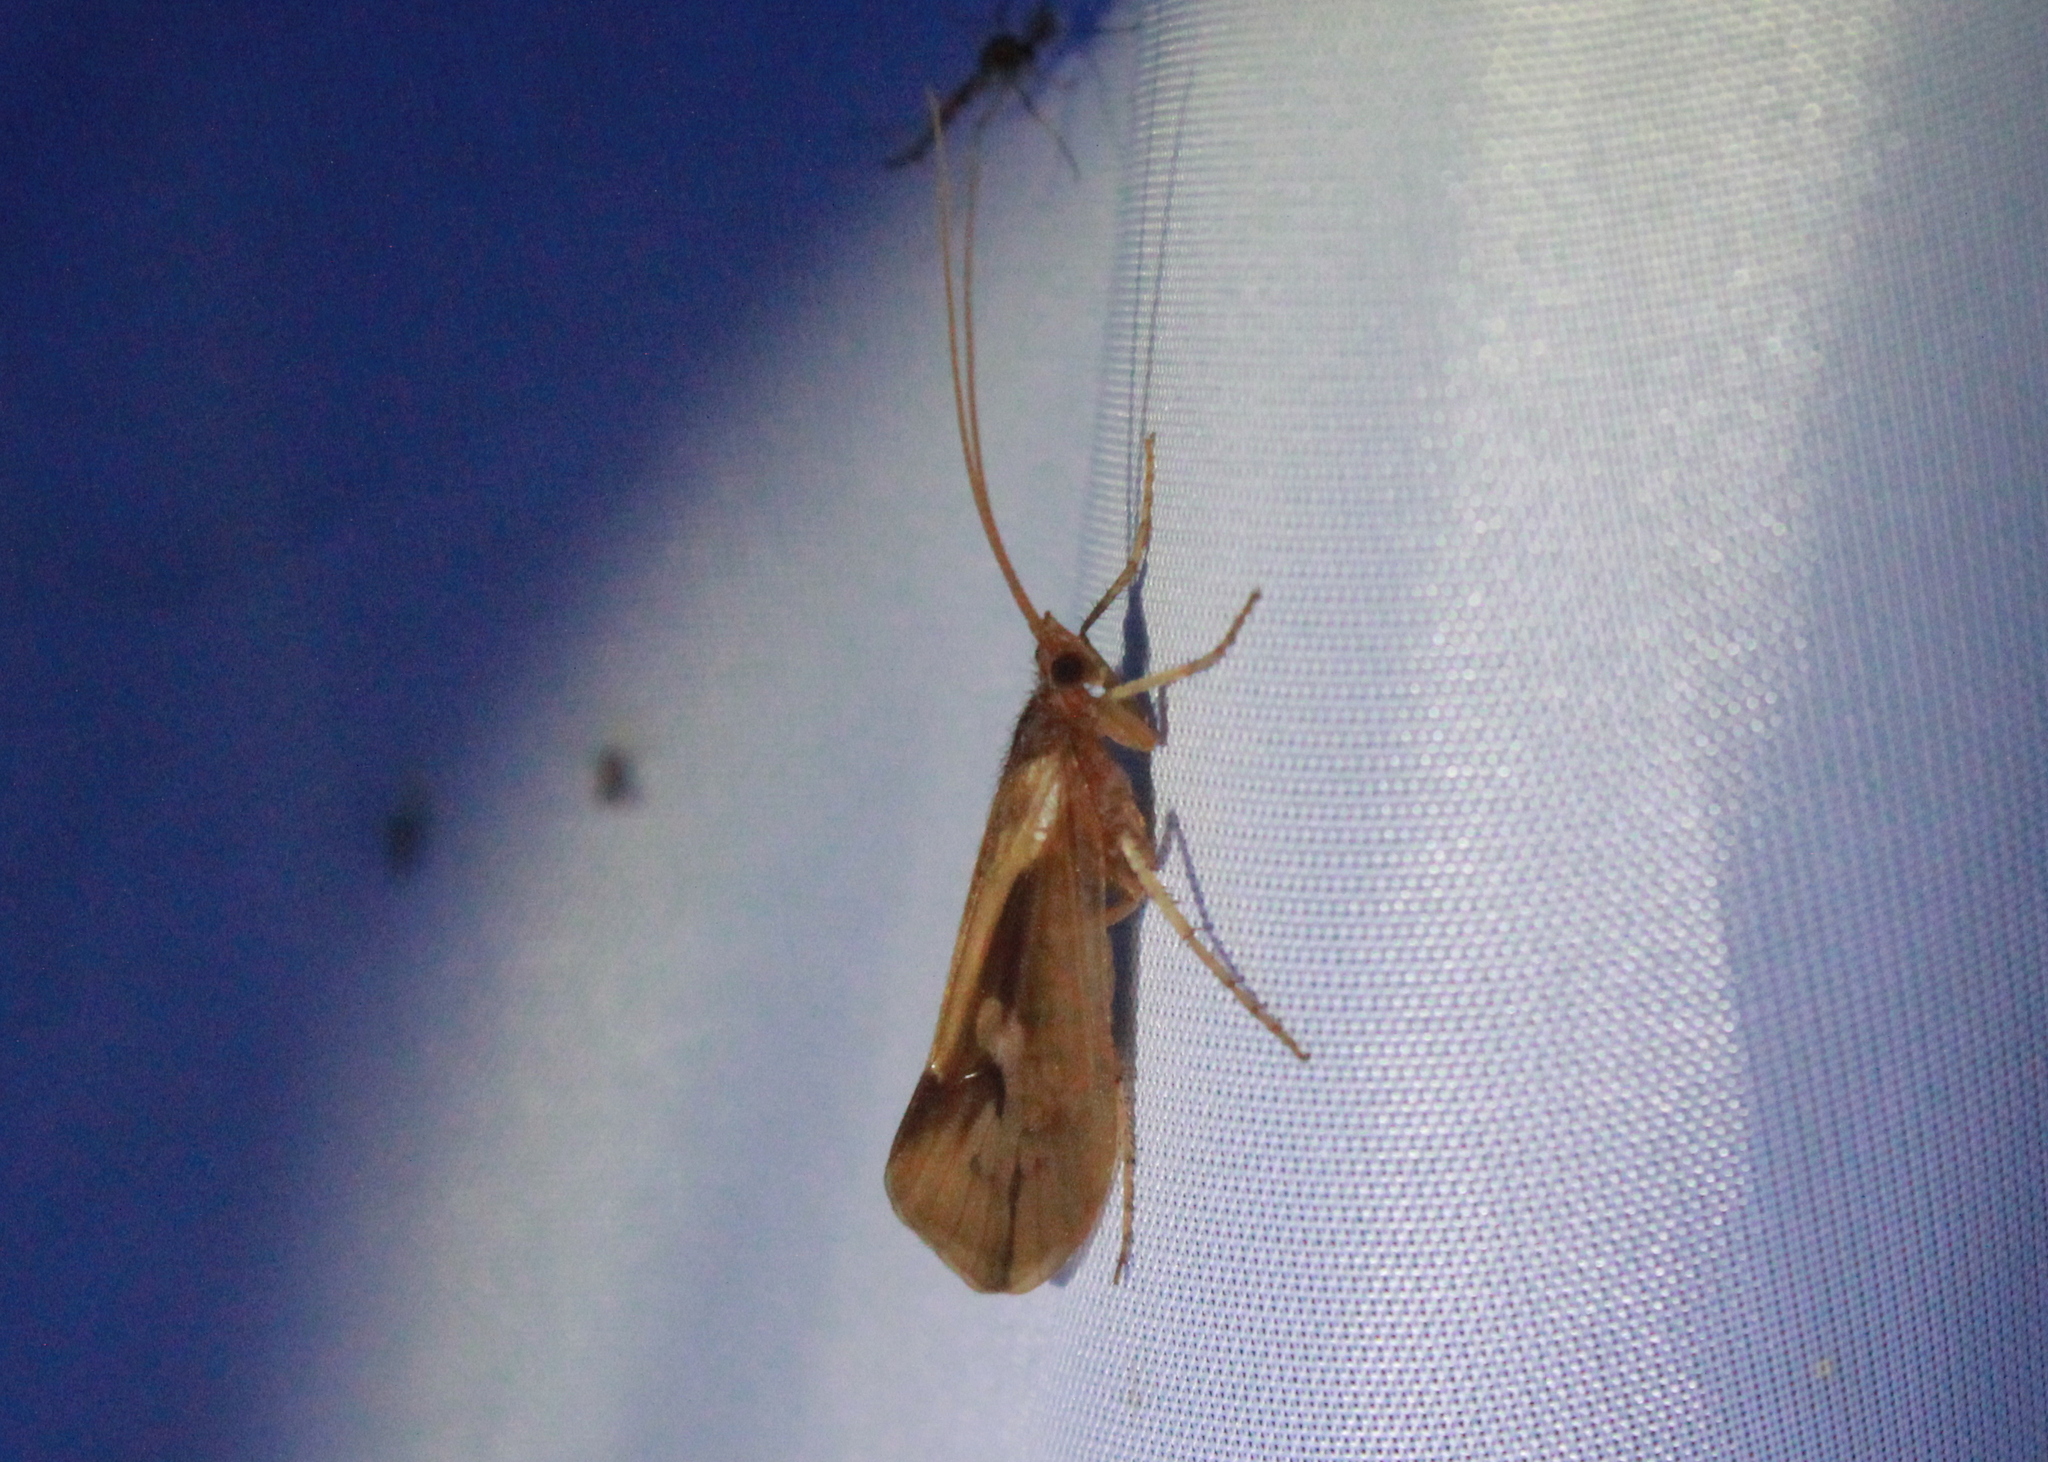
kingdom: Animalia
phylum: Arthropoda
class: Insecta
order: Trichoptera
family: Limnephilidae
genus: Platycentropus
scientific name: Platycentropus radiatus
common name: Chocolate-and-cream sedge
